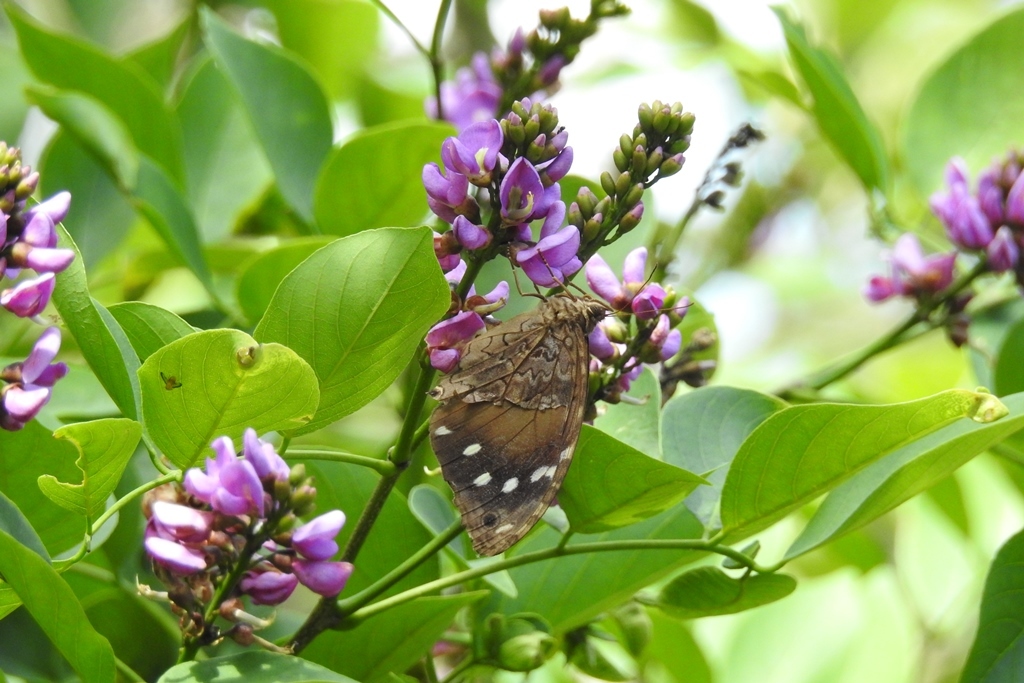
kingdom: Animalia
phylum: Arthropoda
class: Insecta
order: Lepidoptera
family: Nymphalidae
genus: Manataria
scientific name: Manataria maculata
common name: White-spotted satyr
